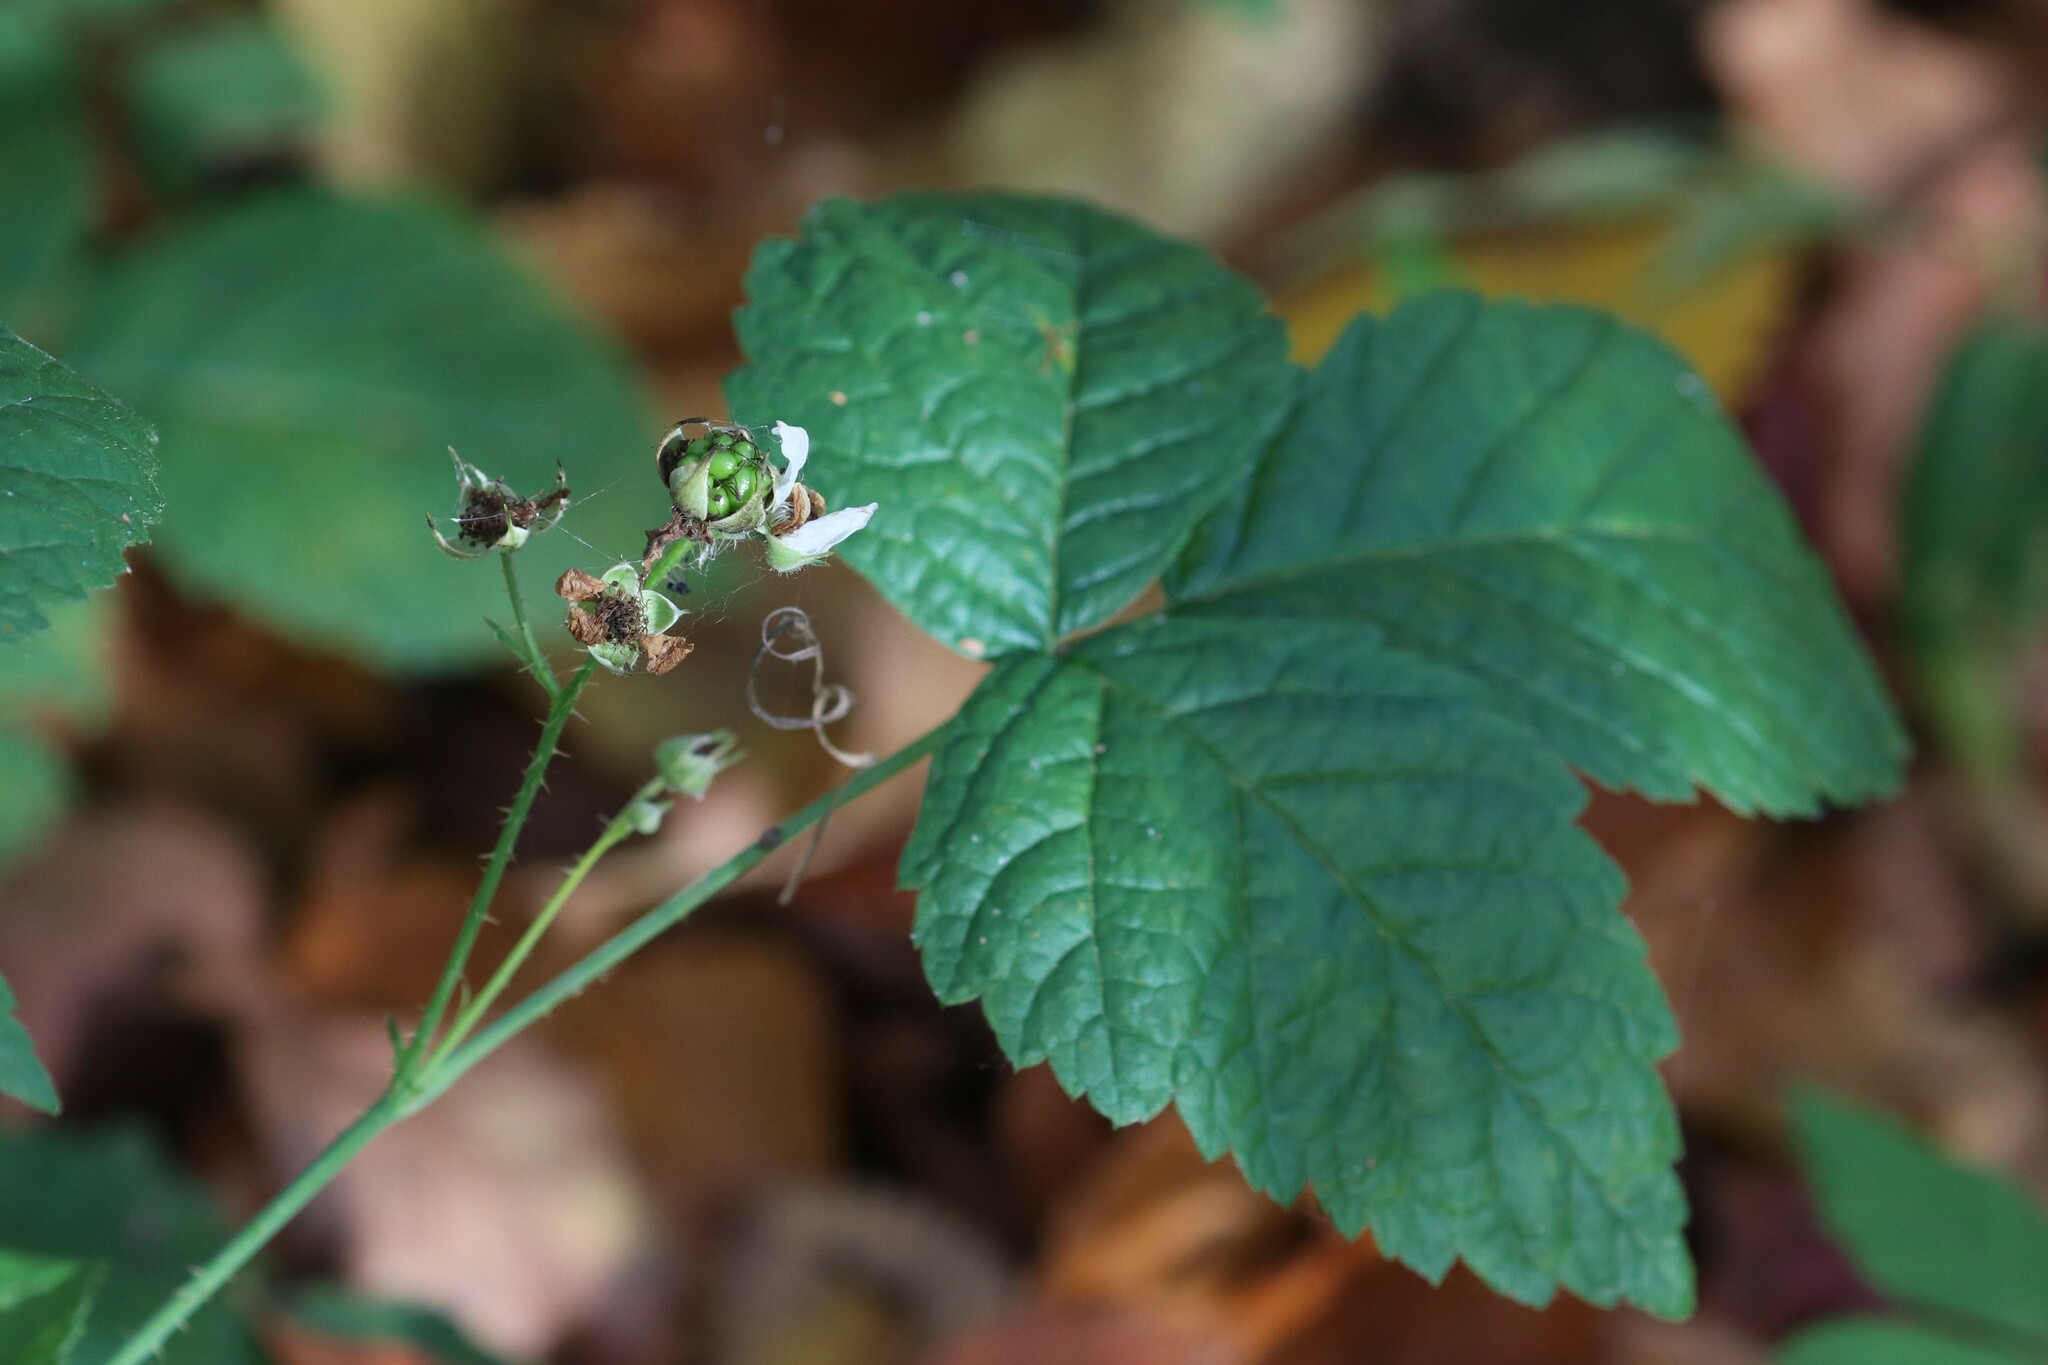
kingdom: Plantae
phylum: Tracheophyta
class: Magnoliopsida
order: Rosales
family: Rosaceae
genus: Rubus
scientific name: Rubus caesius
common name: Dewberry
